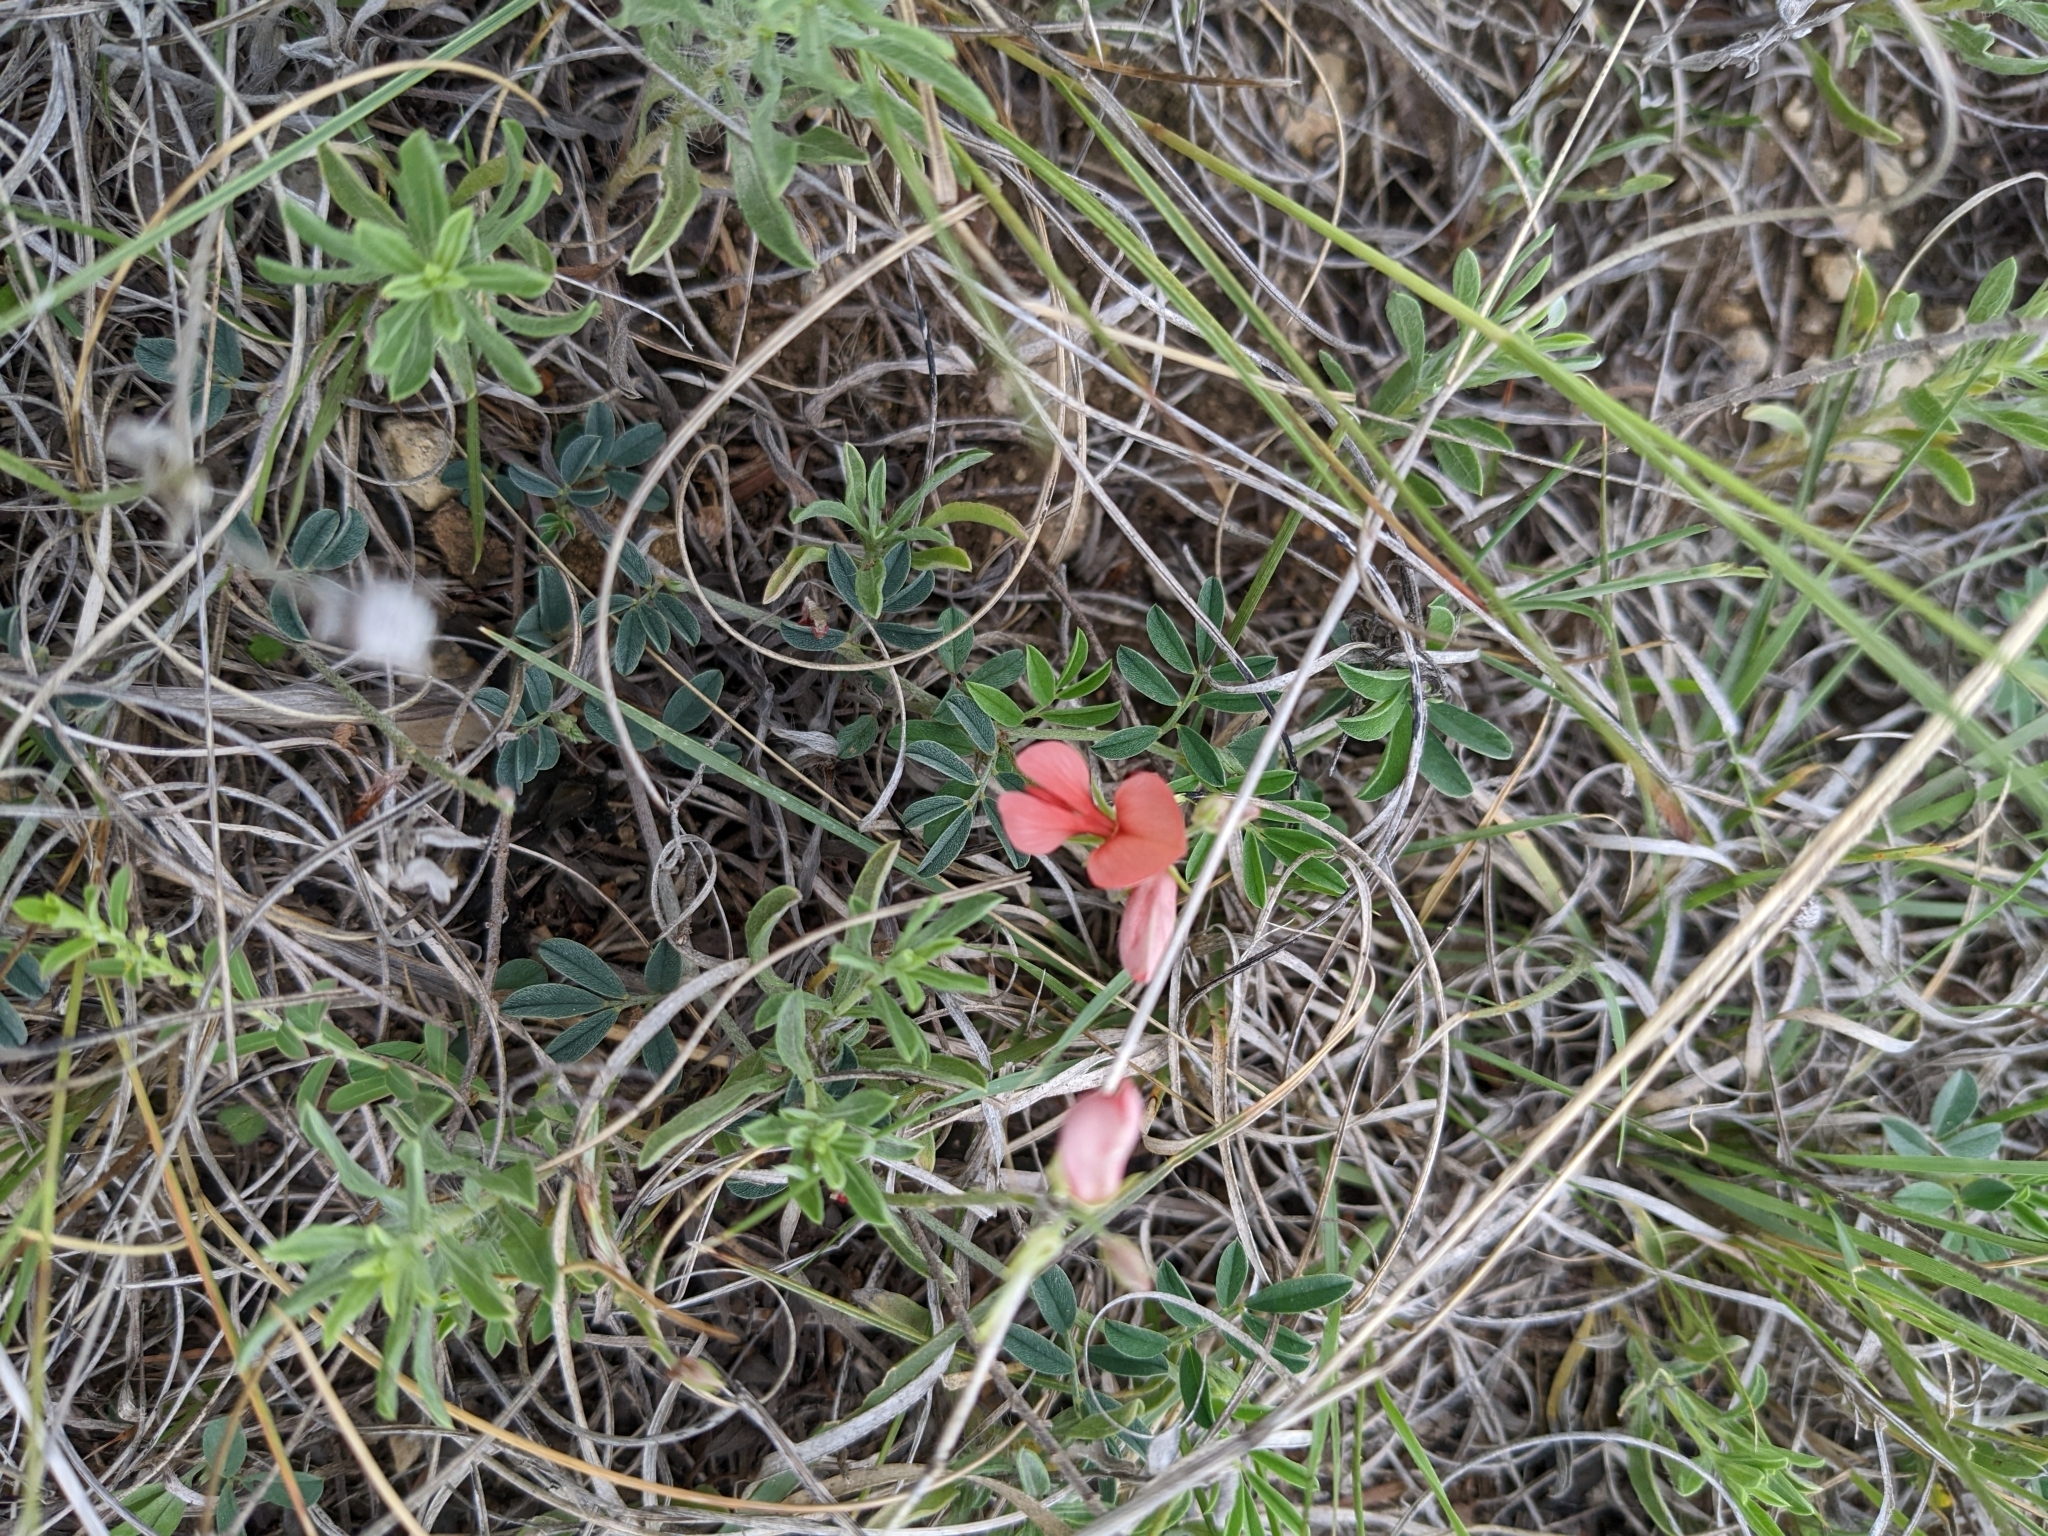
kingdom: Plantae
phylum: Tracheophyta
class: Magnoliopsida
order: Fabales
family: Fabaceae
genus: Indigofera
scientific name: Indigofera miniata
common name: Coast indigo
